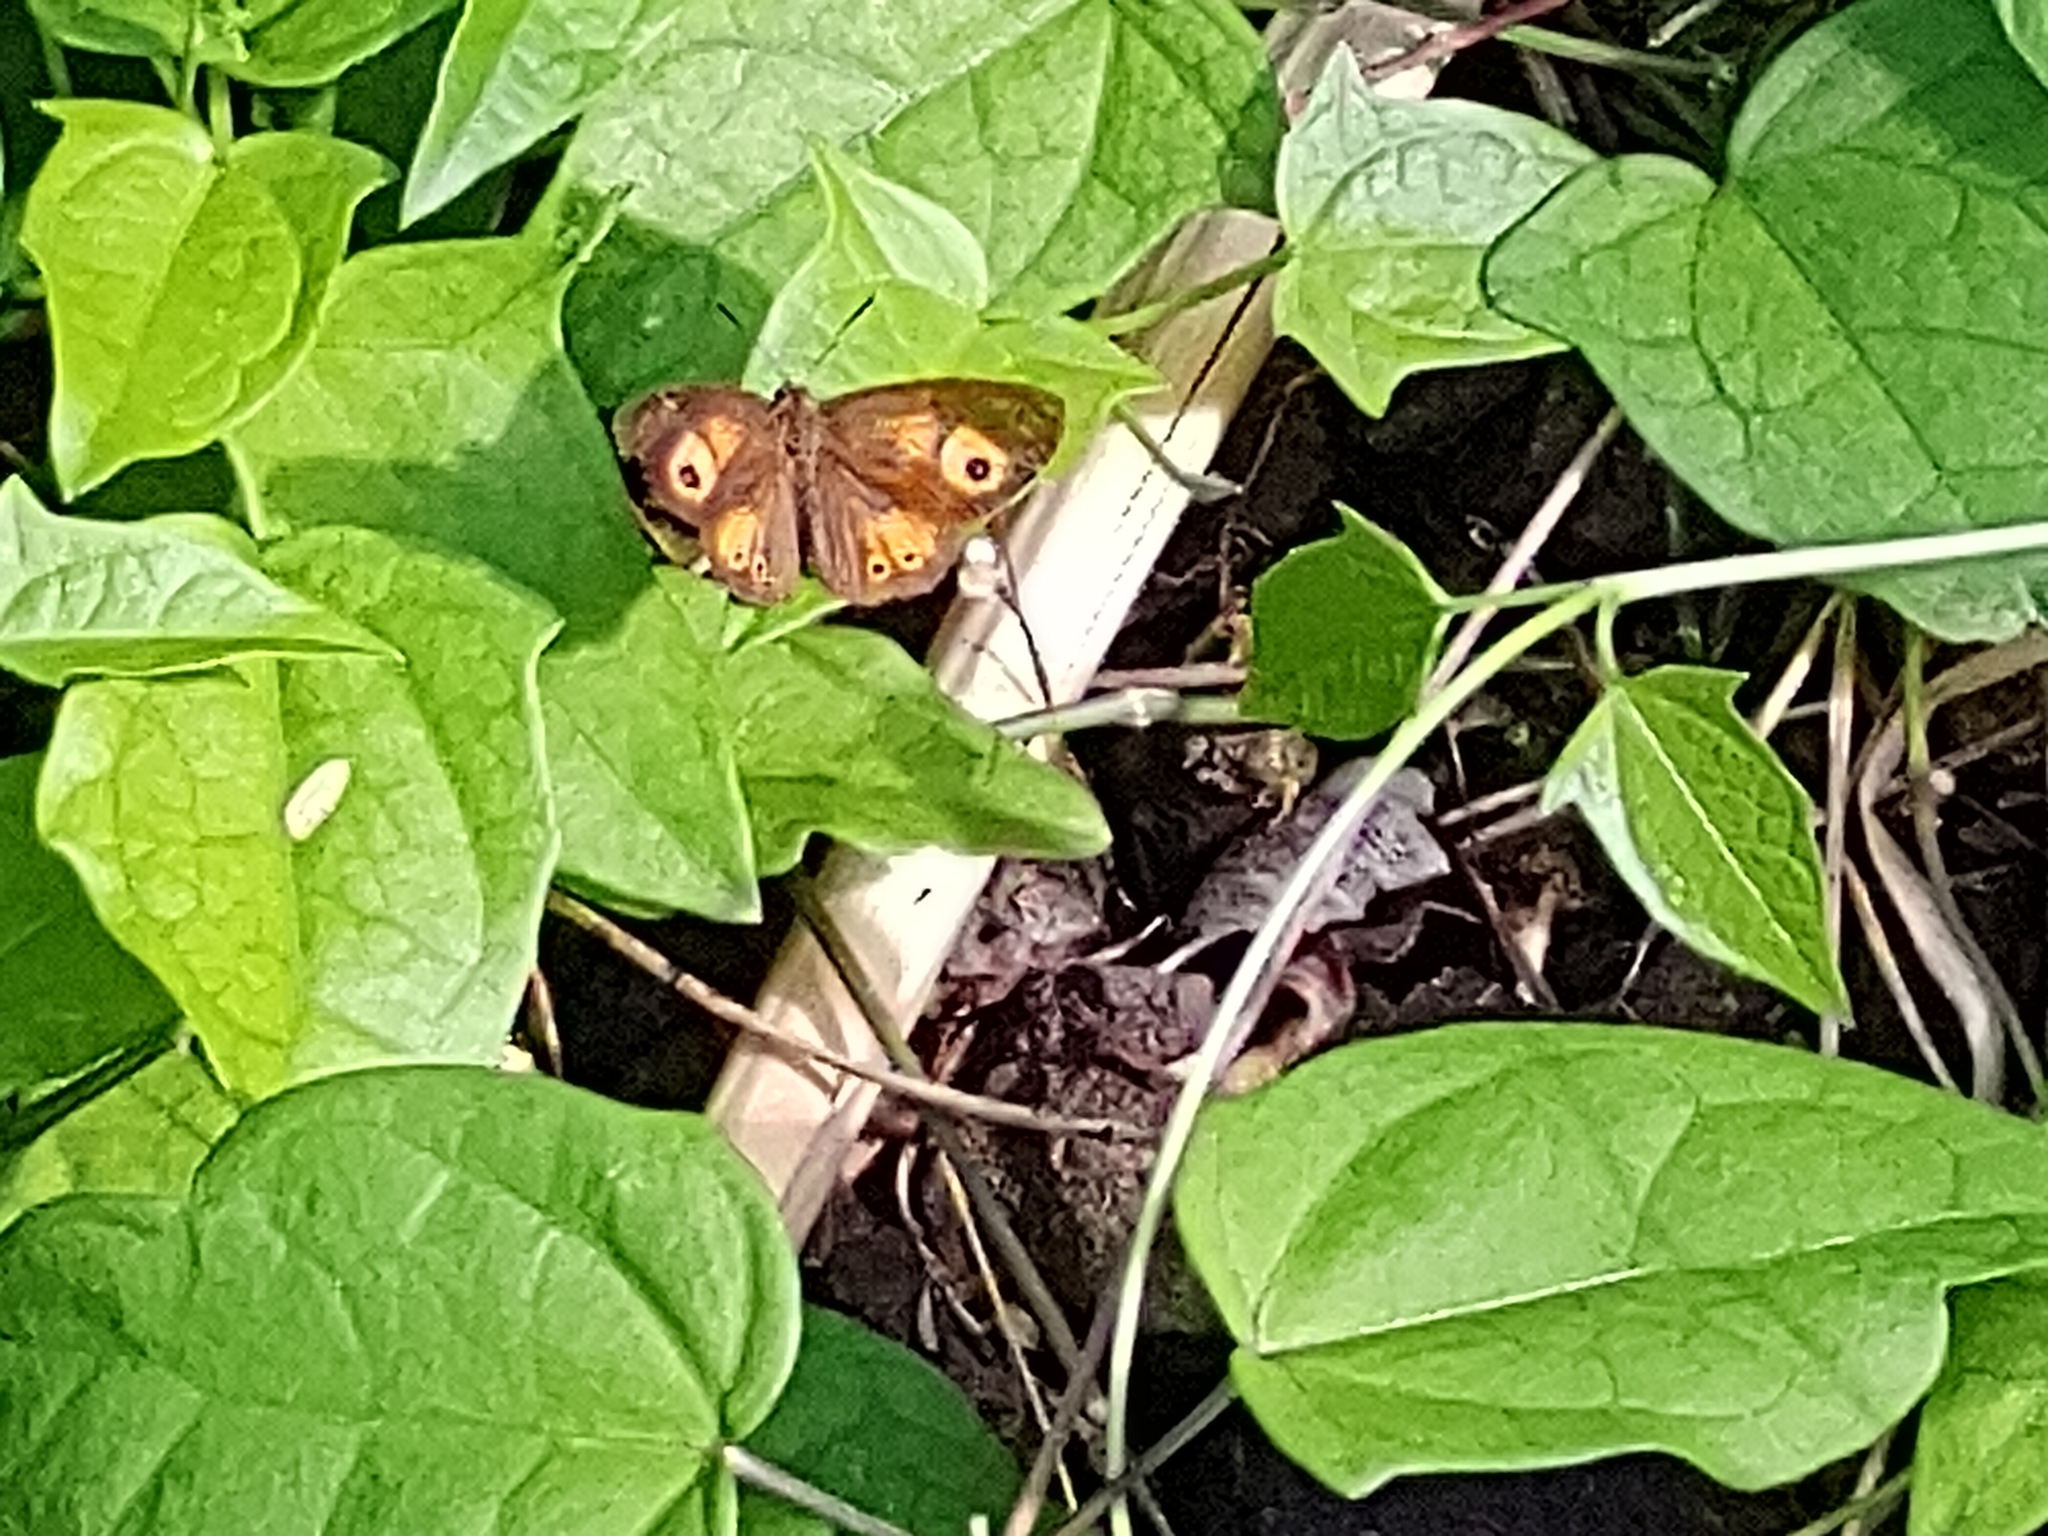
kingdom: Animalia
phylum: Arthropoda
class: Insecta
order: Lepidoptera
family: Nymphalidae
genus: Henotesia
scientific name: Henotesia narcissus
